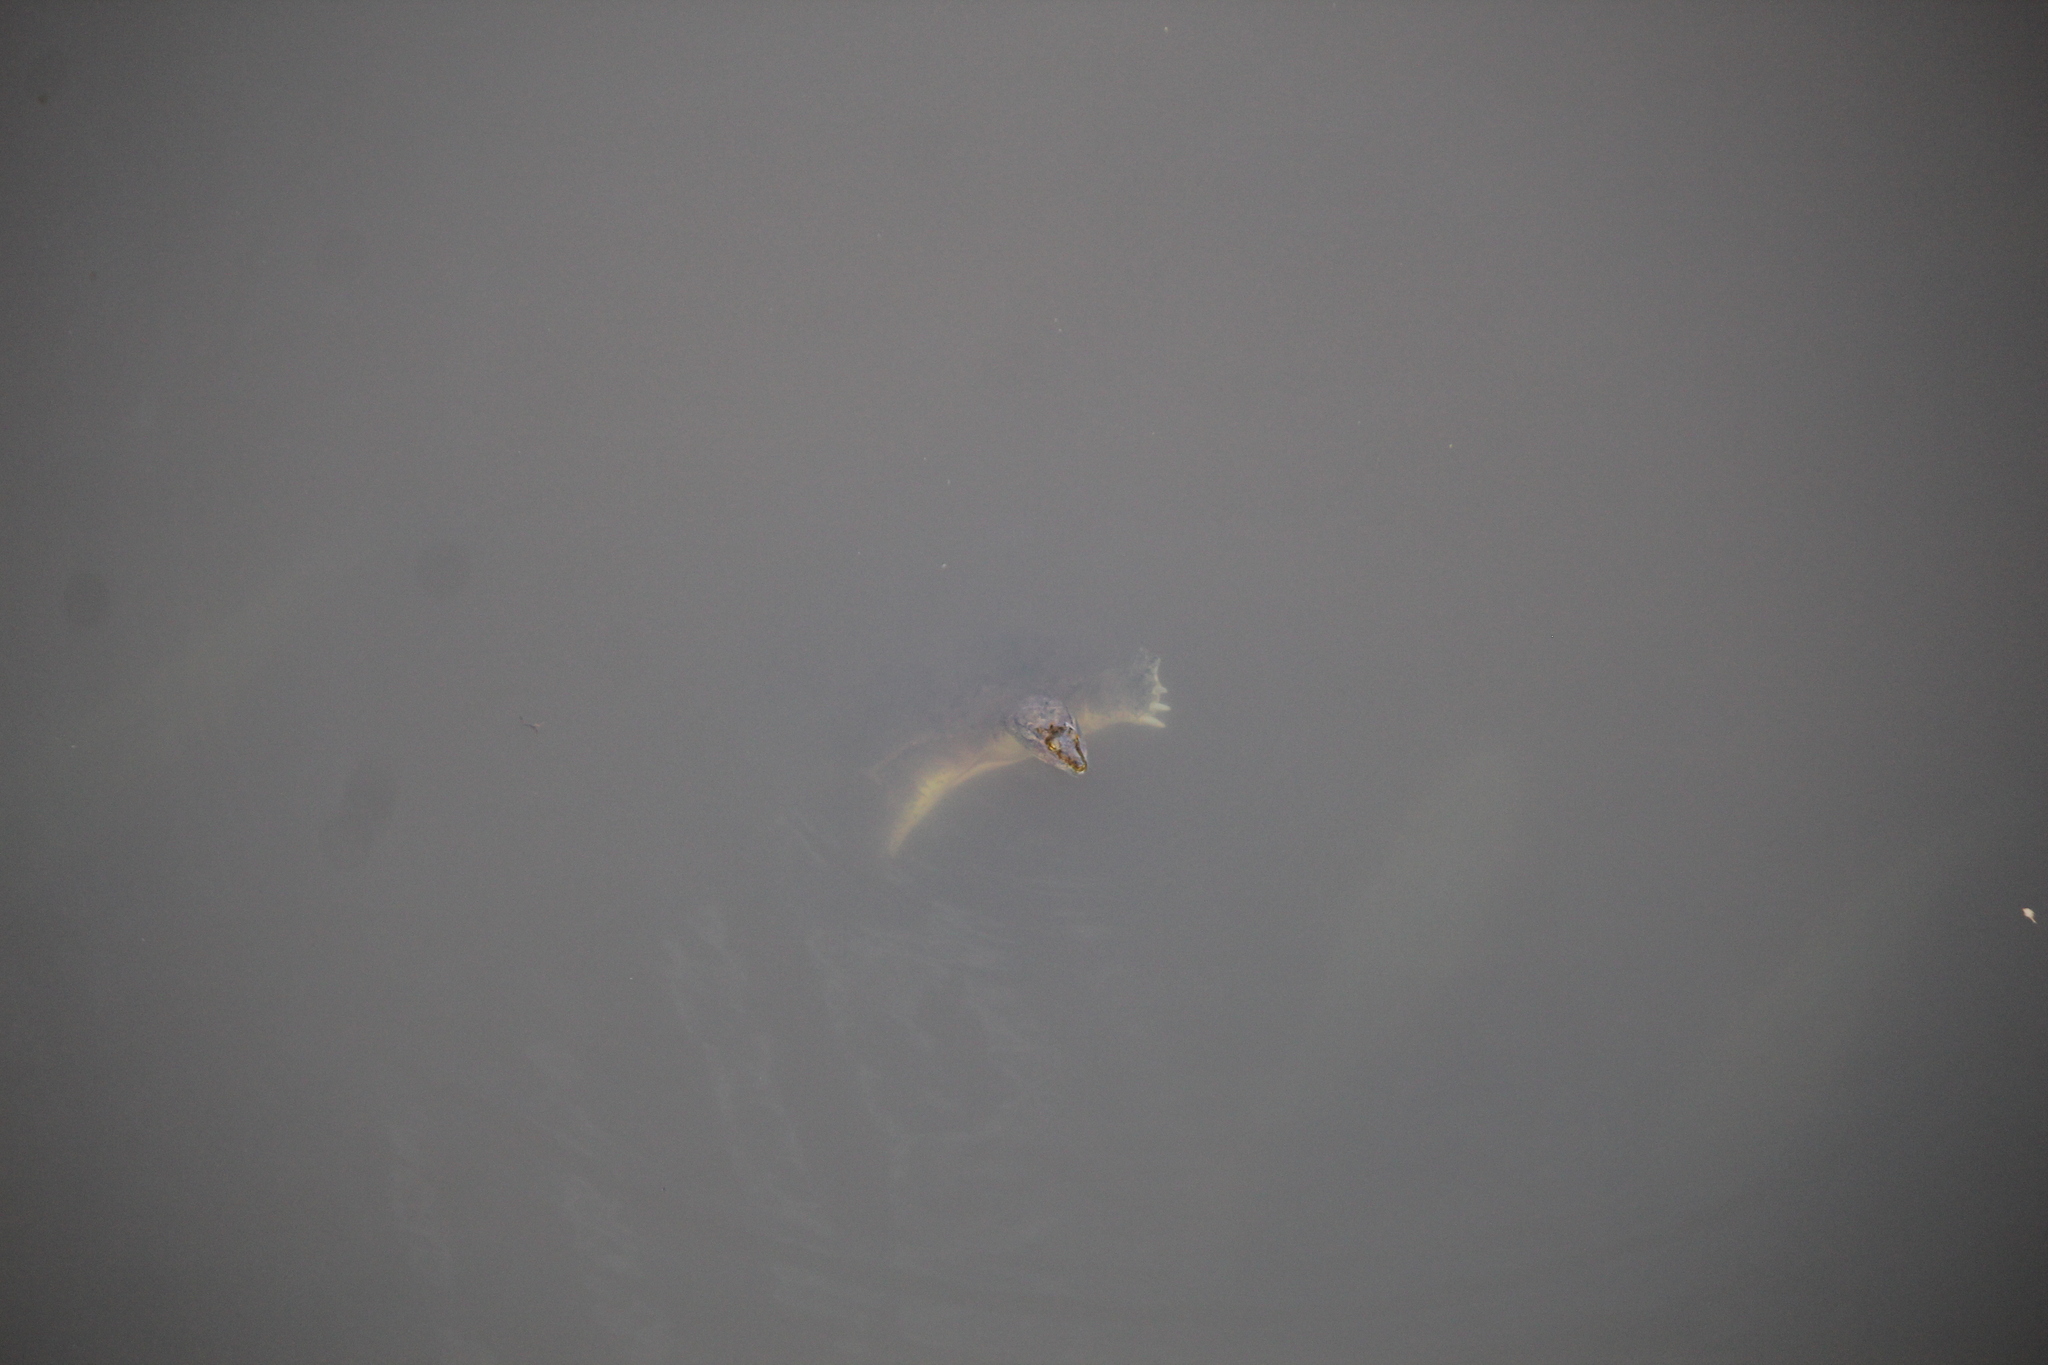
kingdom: Animalia
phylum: Chordata
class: Testudines
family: Trionychidae
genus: Apalone
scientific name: Apalone spinifera
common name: Spiny softshell turtle
